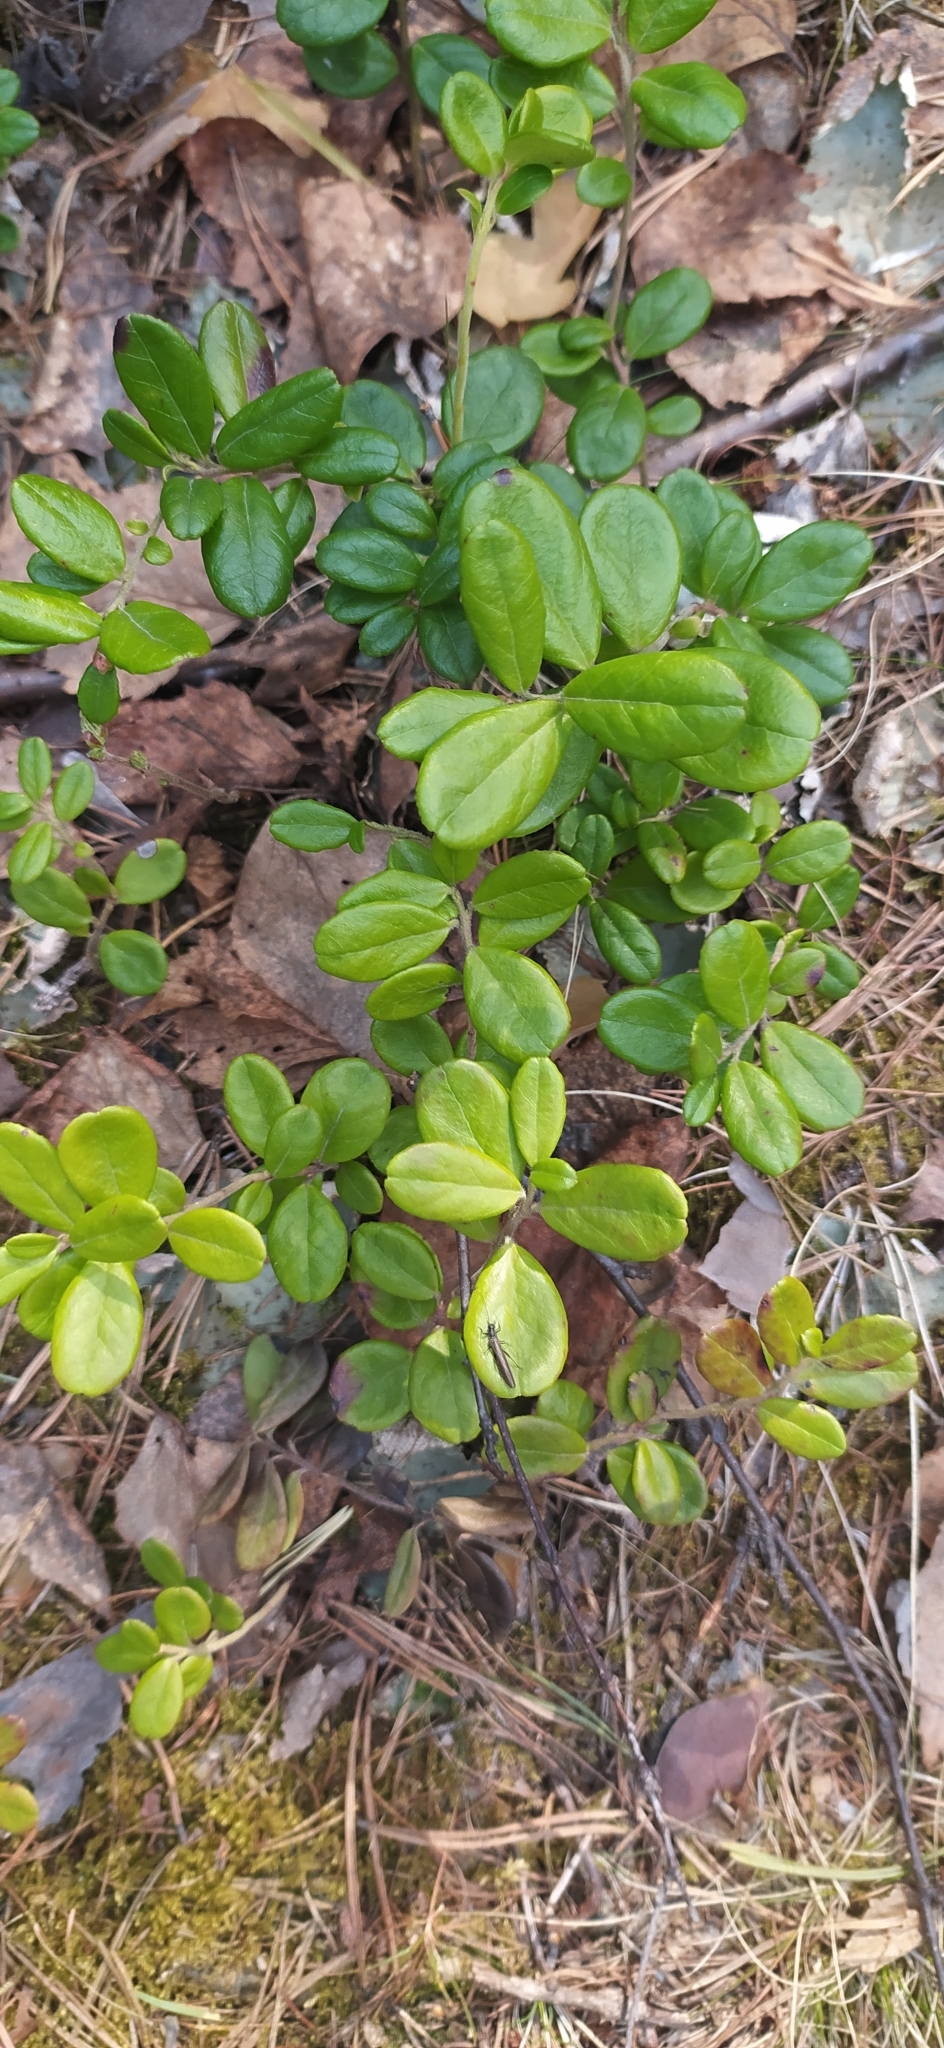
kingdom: Plantae
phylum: Tracheophyta
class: Magnoliopsida
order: Ericales
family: Ericaceae
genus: Vaccinium
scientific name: Vaccinium vitis-idaea
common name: Cowberry
